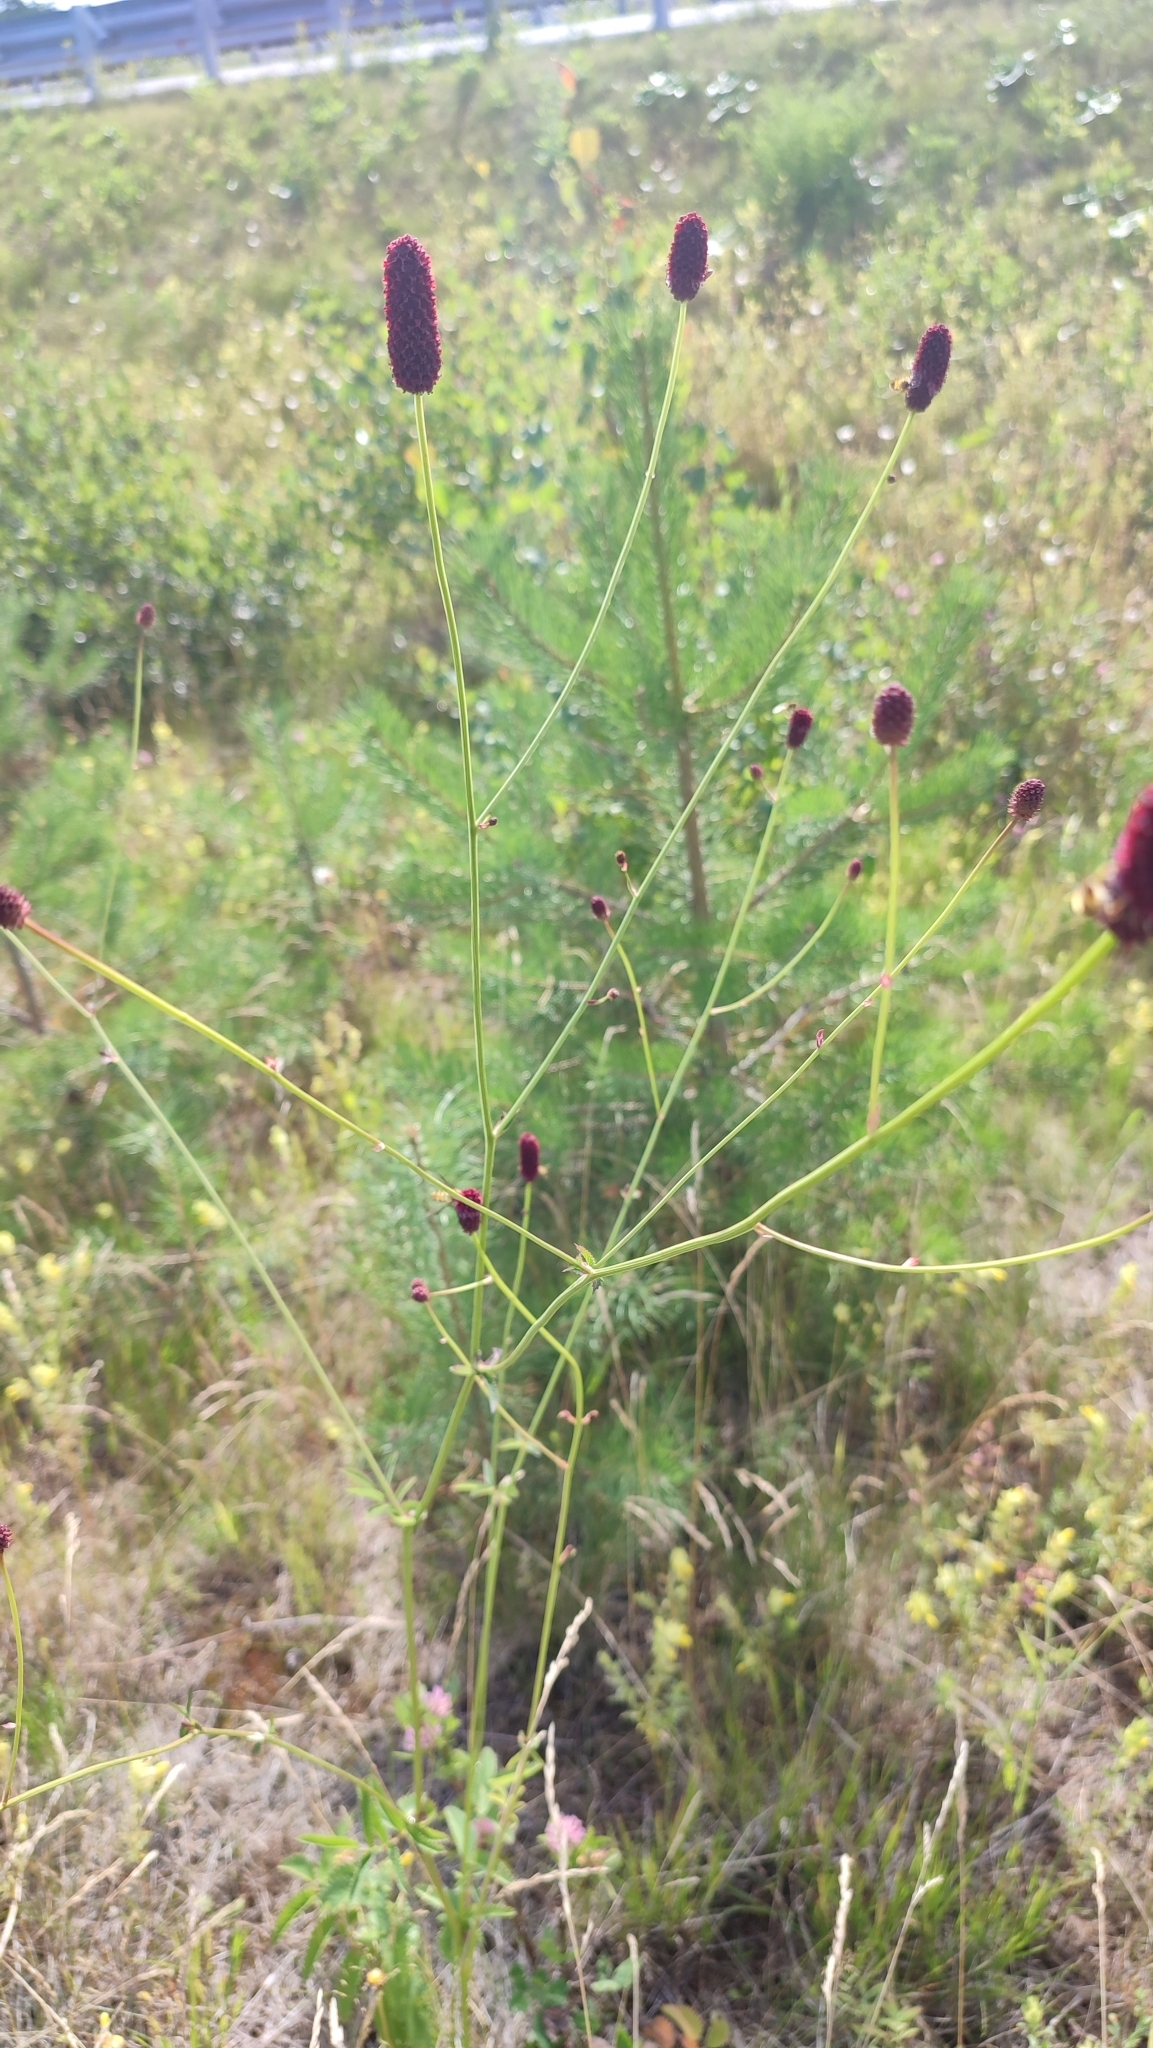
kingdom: Plantae
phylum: Tracheophyta
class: Magnoliopsida
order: Rosales
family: Rosaceae
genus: Sanguisorba
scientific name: Sanguisorba officinalis
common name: Great burnet
